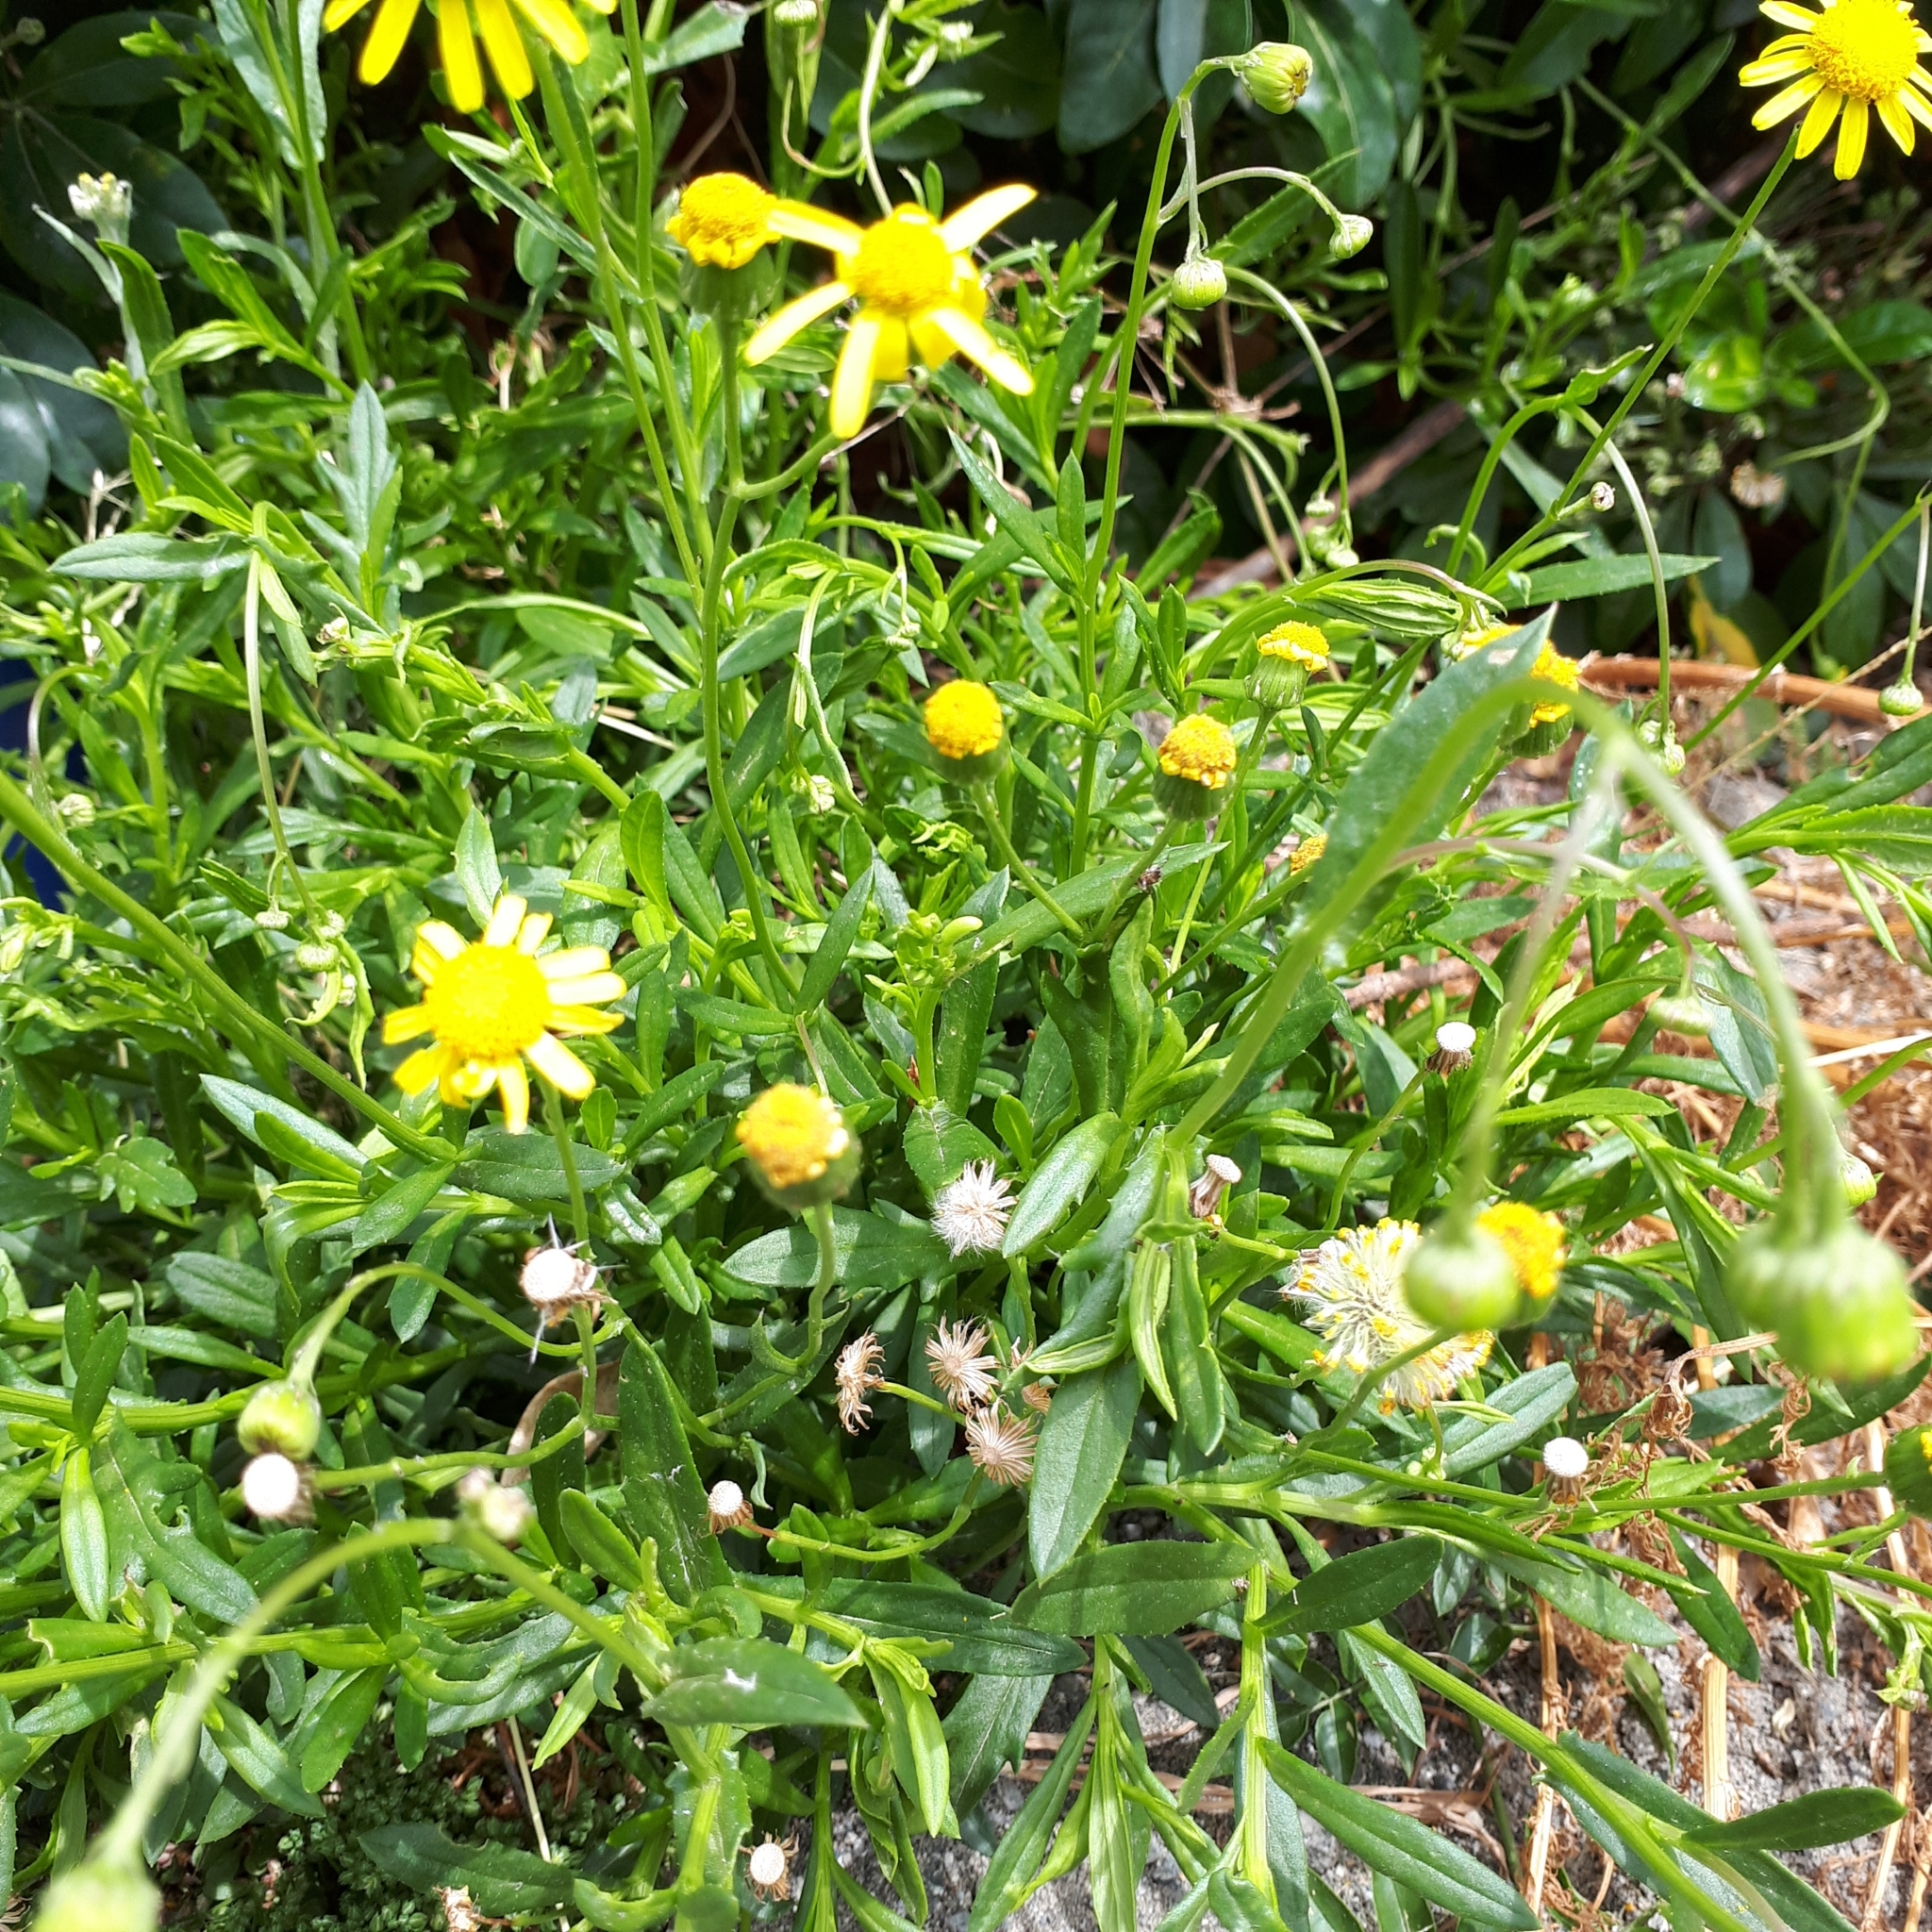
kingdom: Plantae
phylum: Tracheophyta
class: Magnoliopsida
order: Asterales
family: Asteraceae
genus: Senecio
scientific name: Senecio skirrhodon
